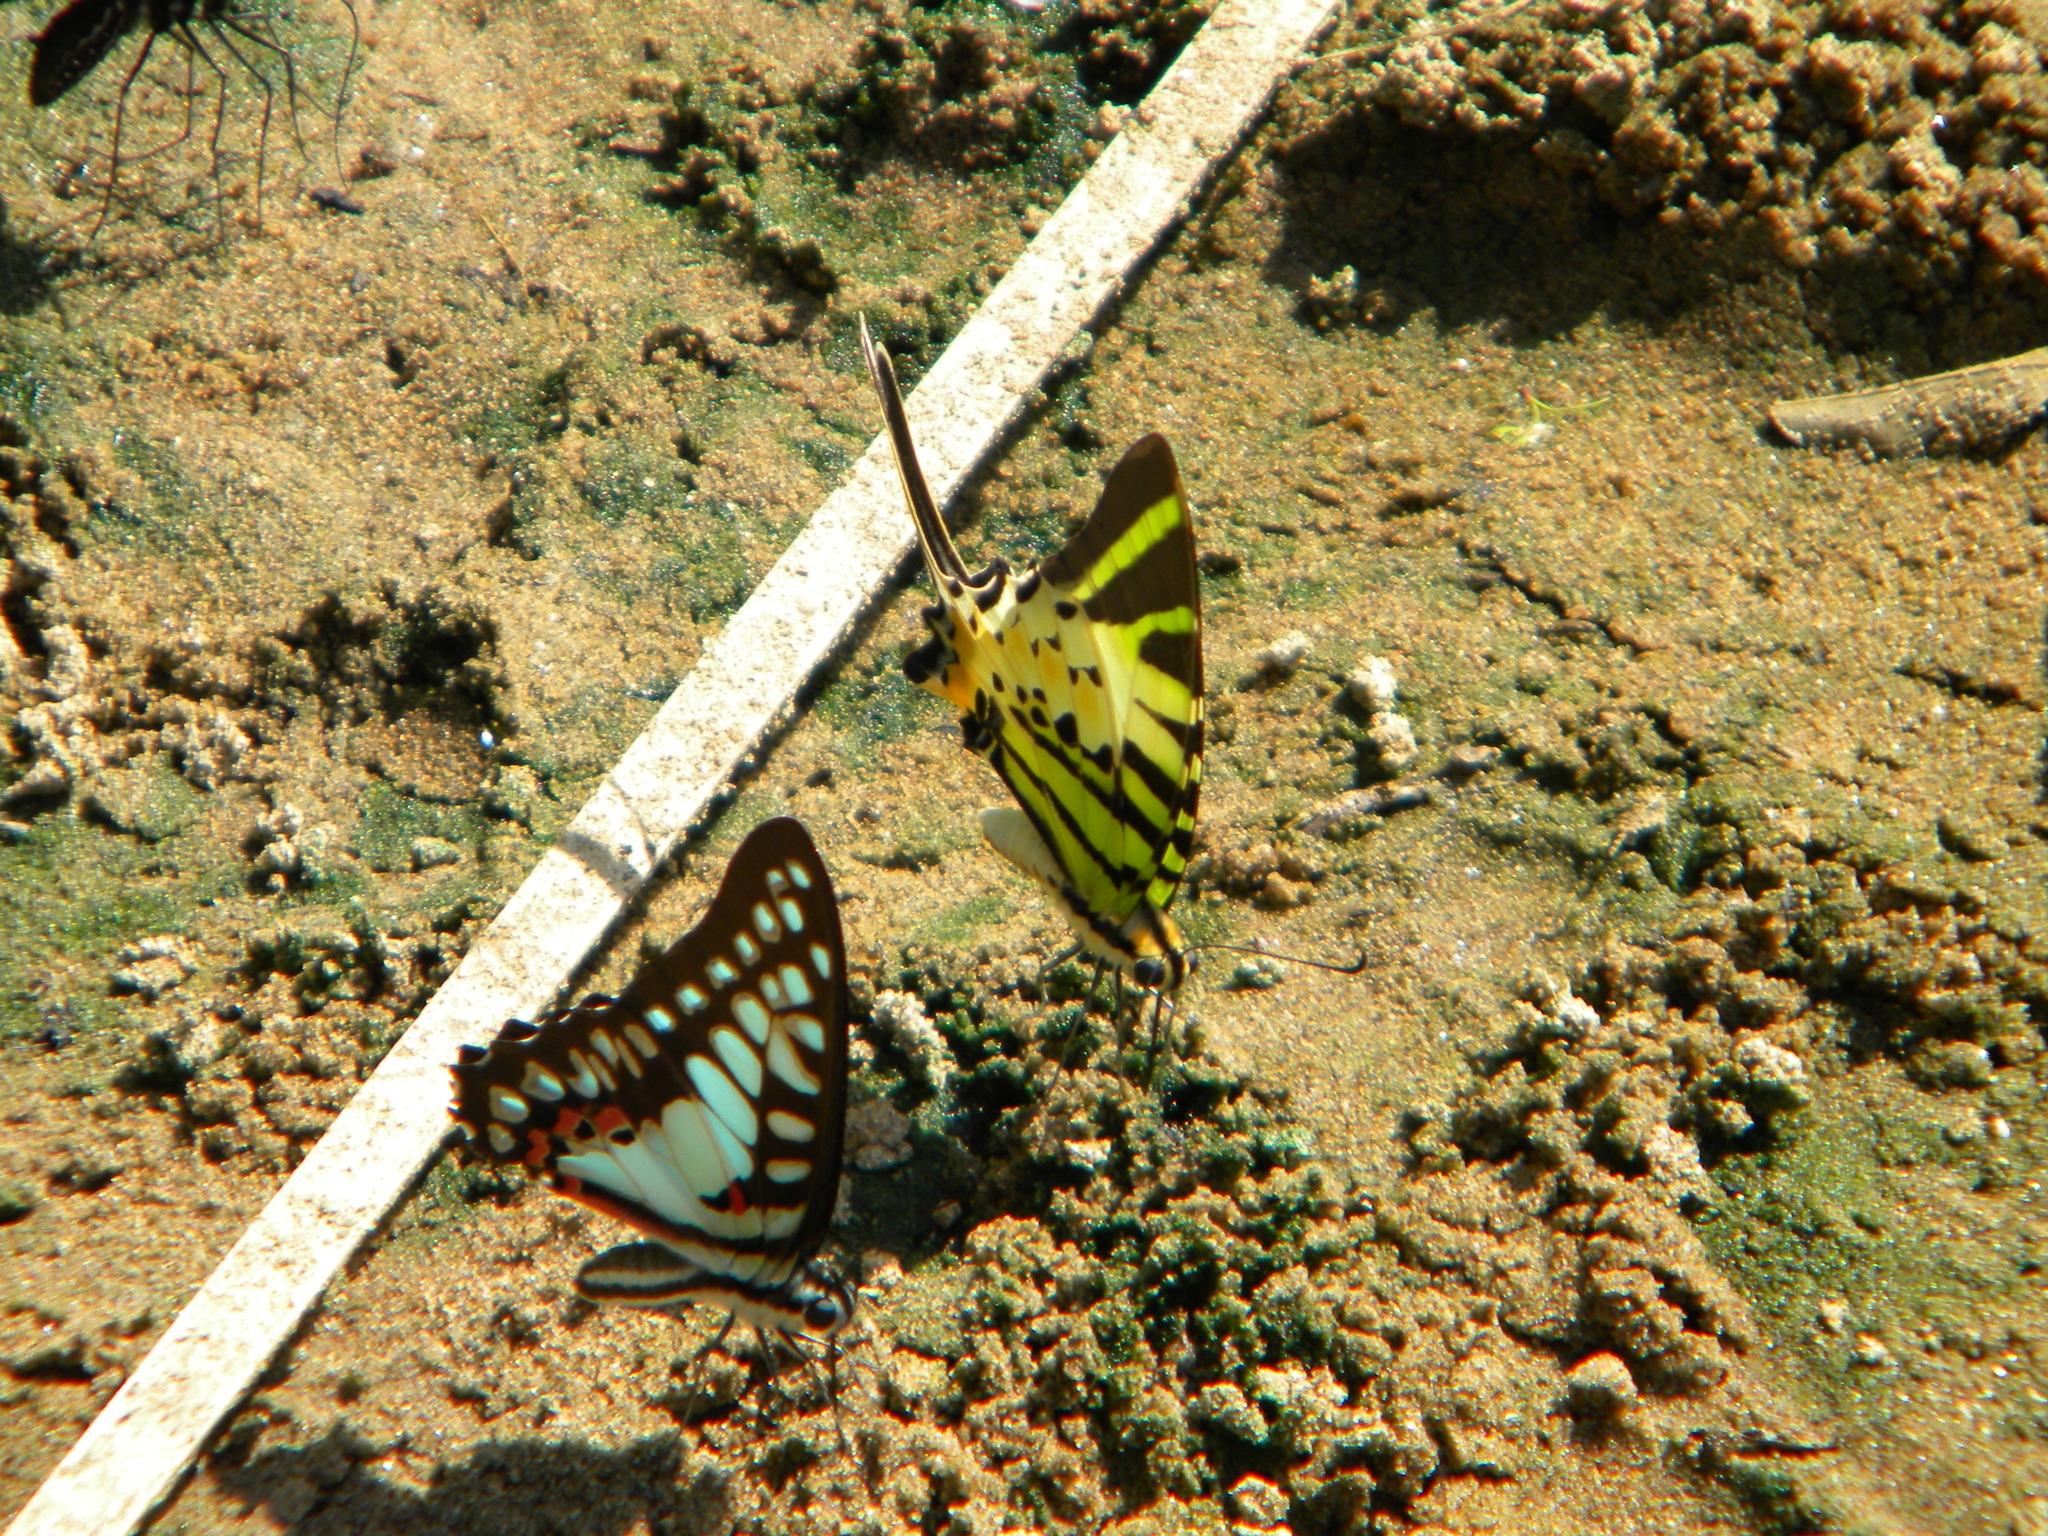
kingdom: Animalia
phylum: Arthropoda
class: Insecta
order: Lepidoptera
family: Papilionidae
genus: Graphium
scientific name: Graphium antiphates
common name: Fivebar swordtail
